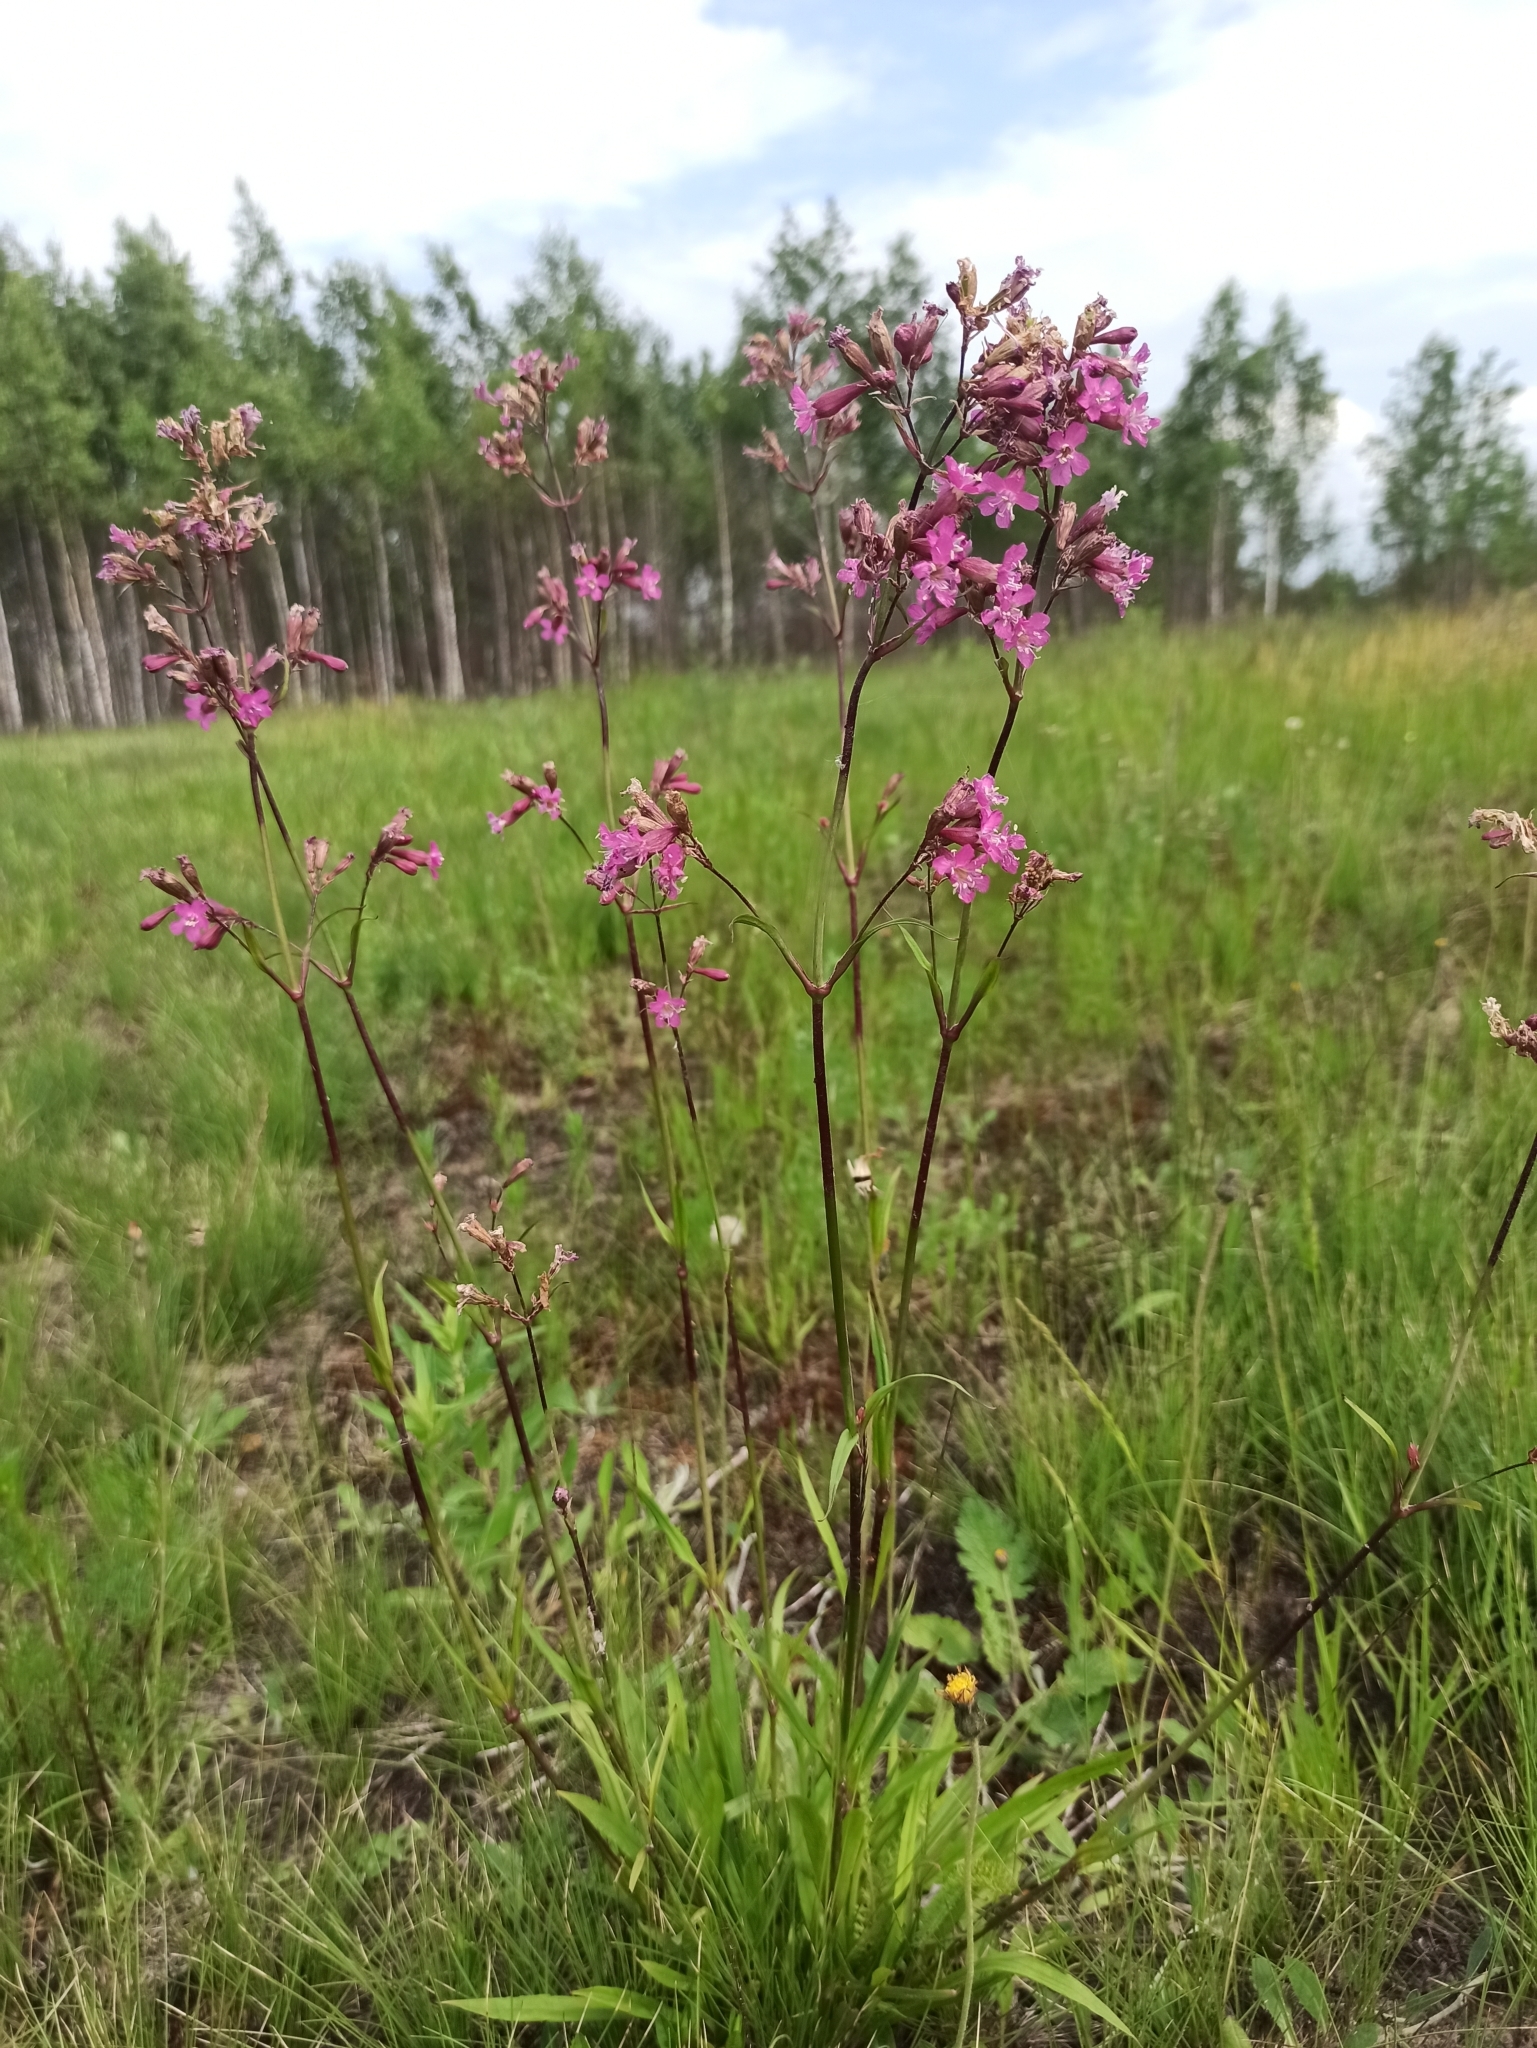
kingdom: Plantae
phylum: Tracheophyta
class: Magnoliopsida
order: Caryophyllales
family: Caryophyllaceae
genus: Viscaria
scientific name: Viscaria vulgaris
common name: Clammy campion
